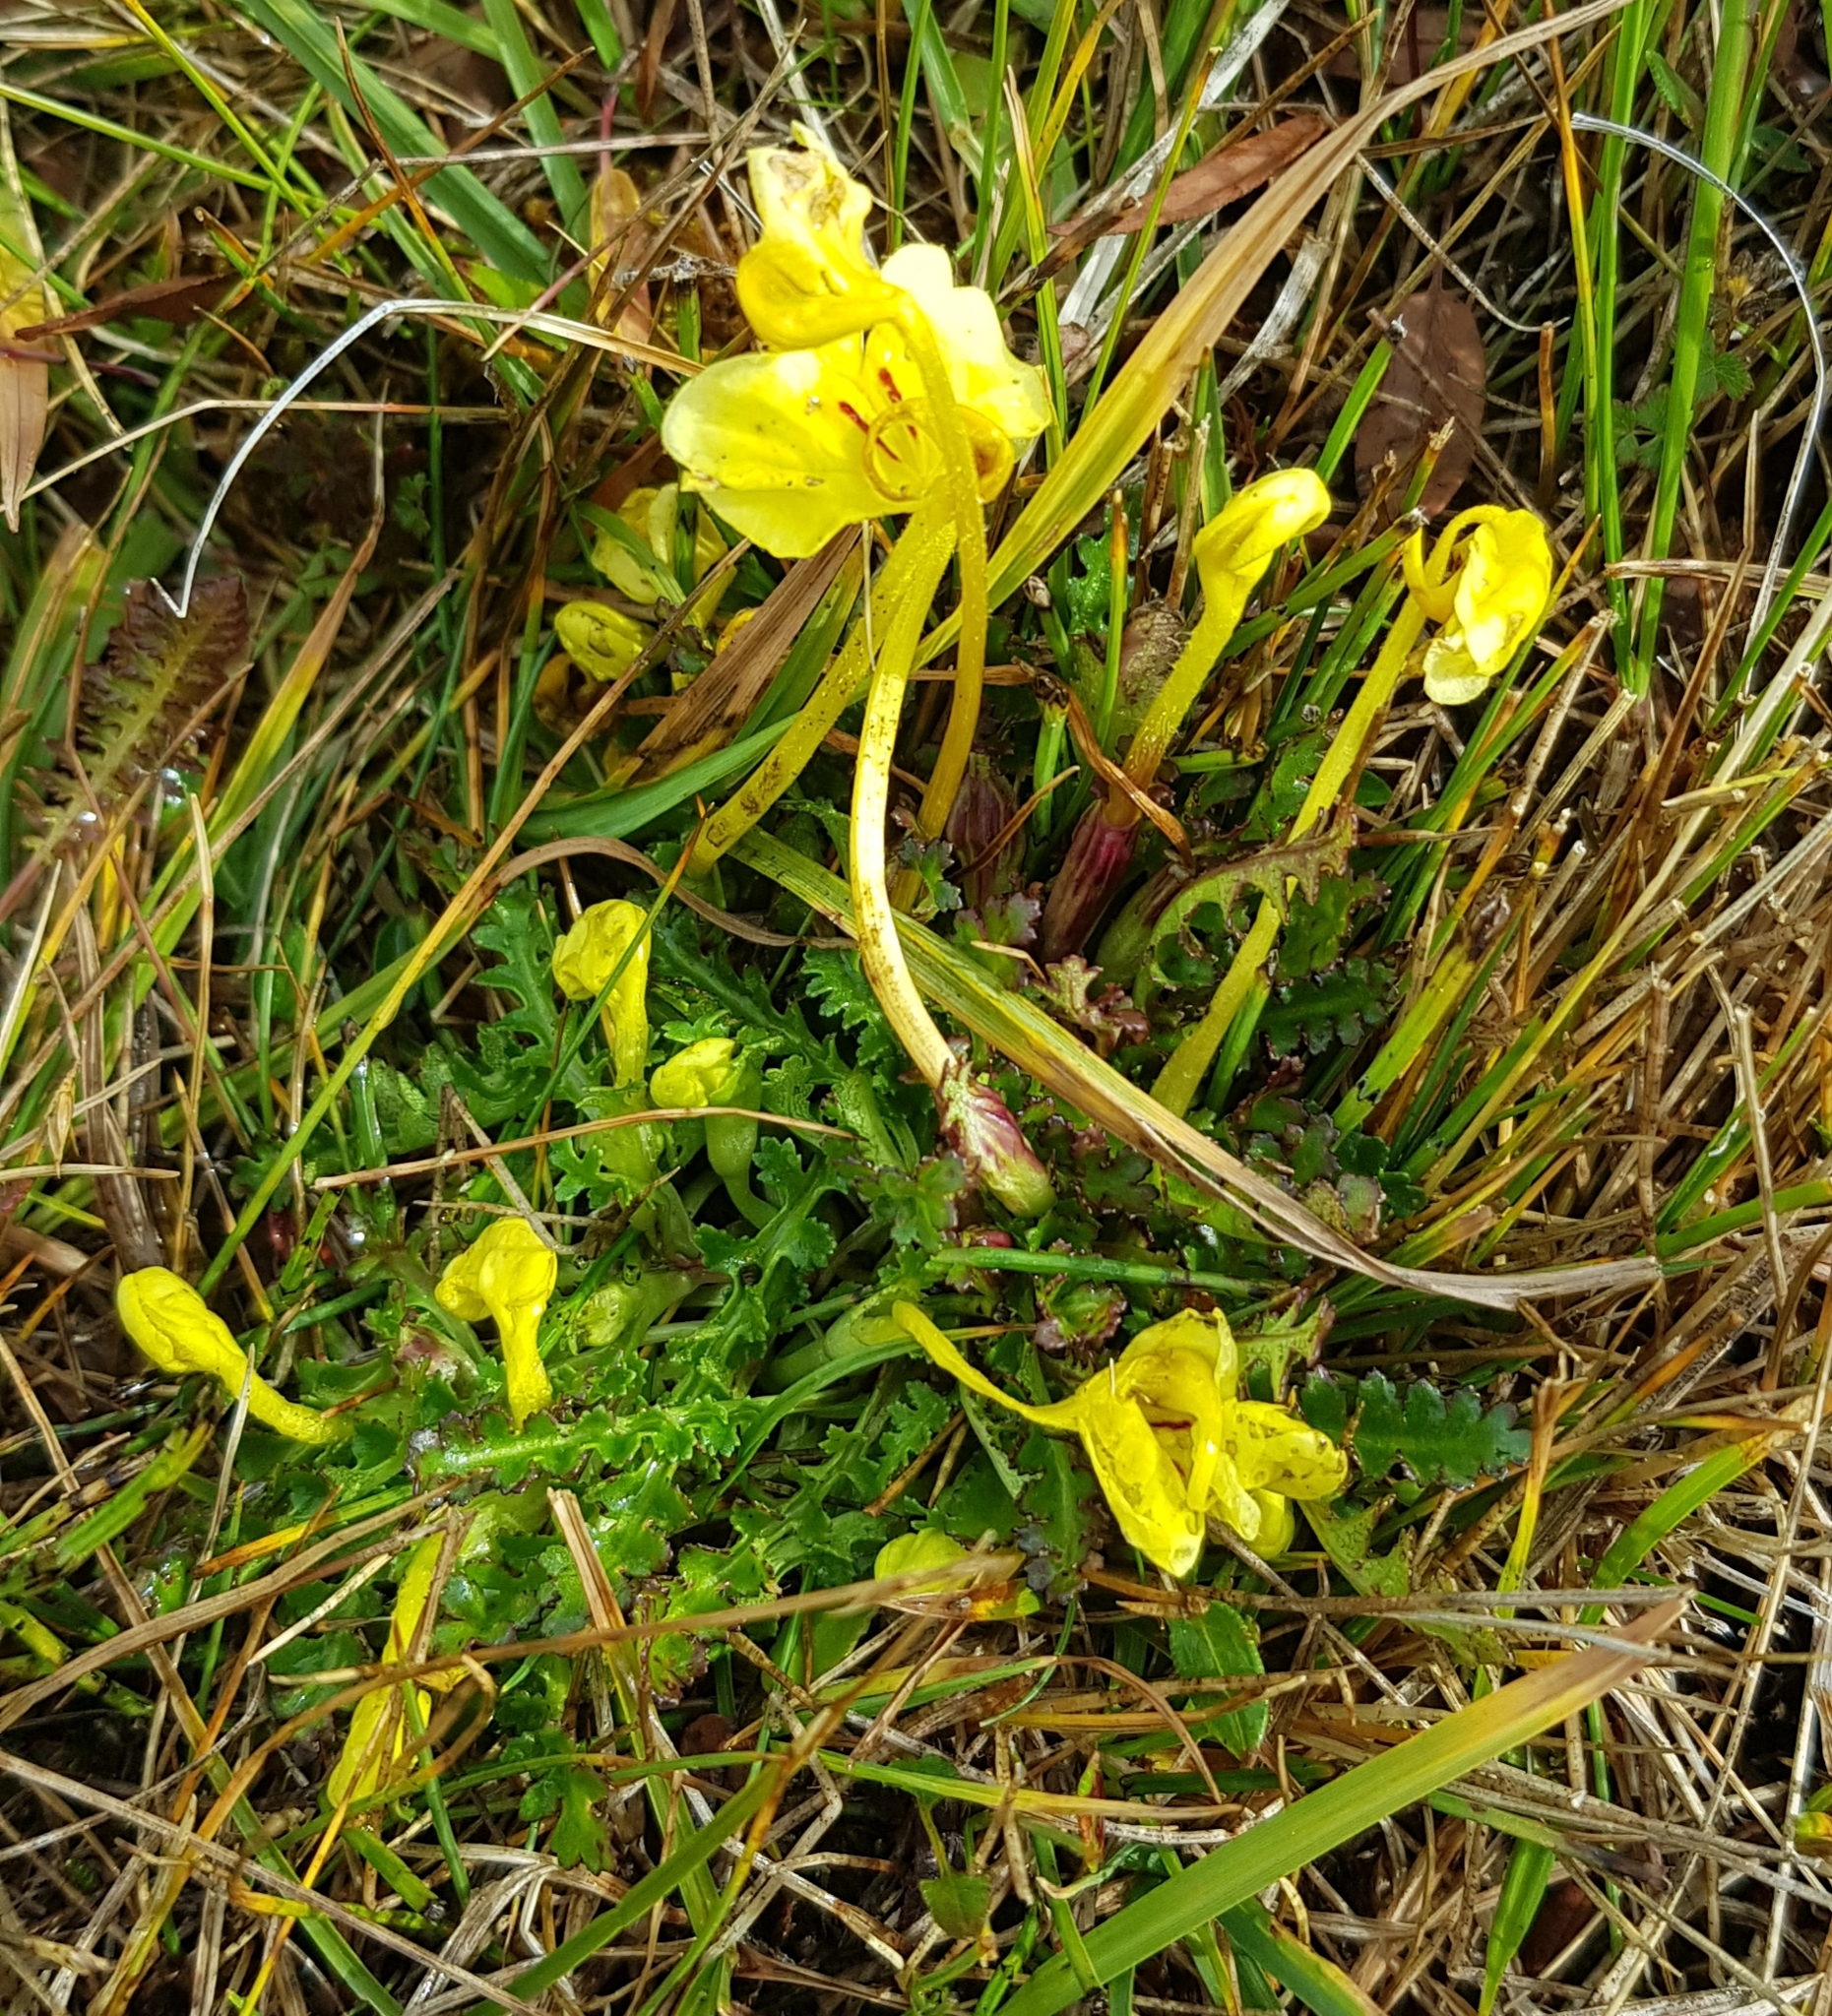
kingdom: Plantae
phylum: Tracheophyta
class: Magnoliopsida
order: Lamiales
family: Orobanchaceae
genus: Pedicularis
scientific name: Pedicularis longiflora
